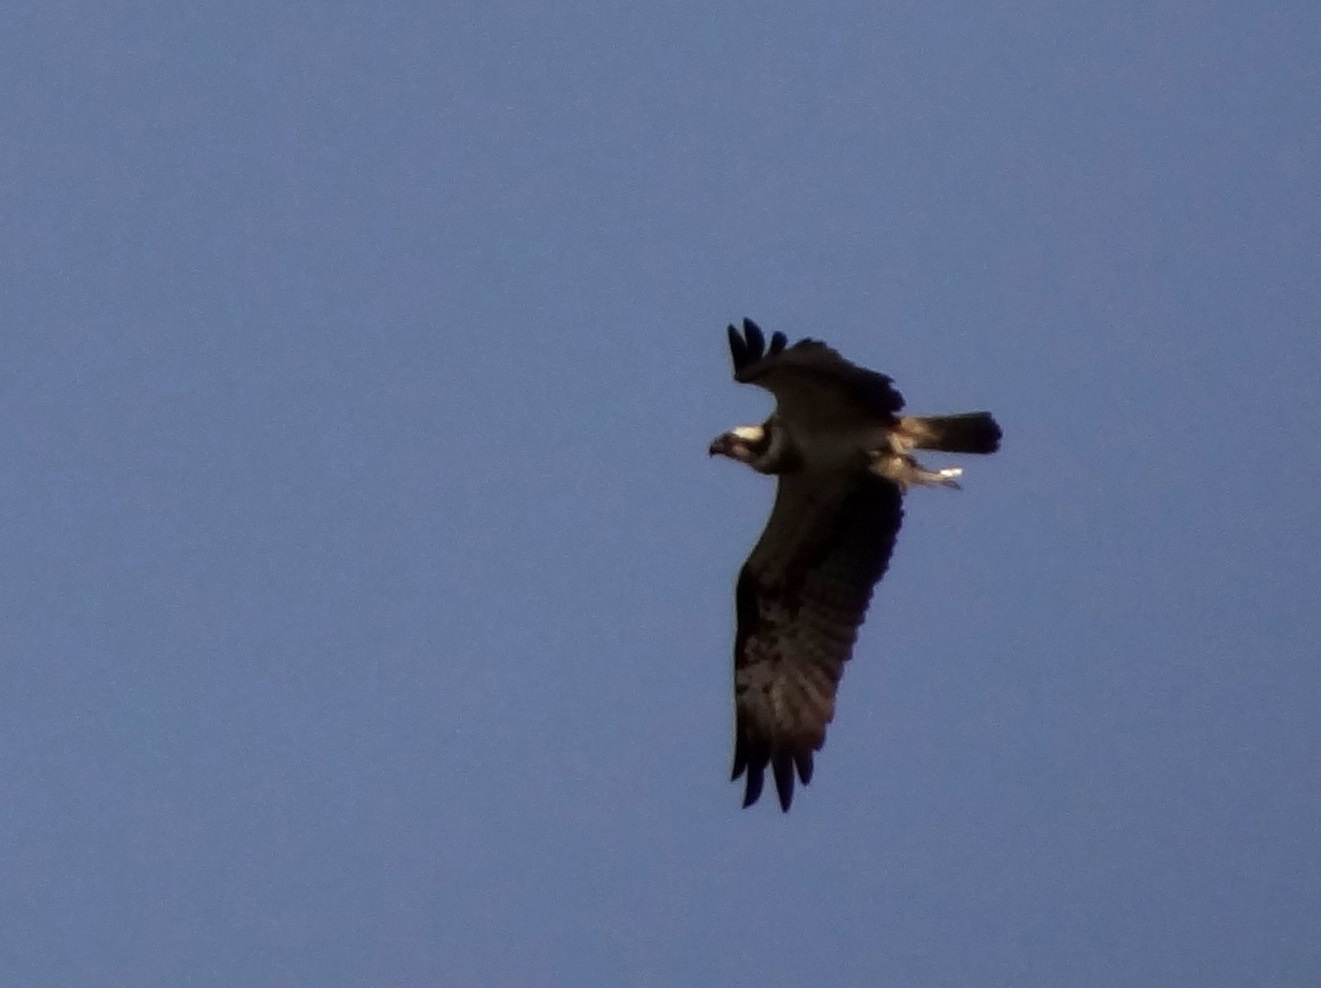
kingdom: Animalia
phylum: Chordata
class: Aves
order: Accipitriformes
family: Pandionidae
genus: Pandion
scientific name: Pandion haliaetus
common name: Osprey
